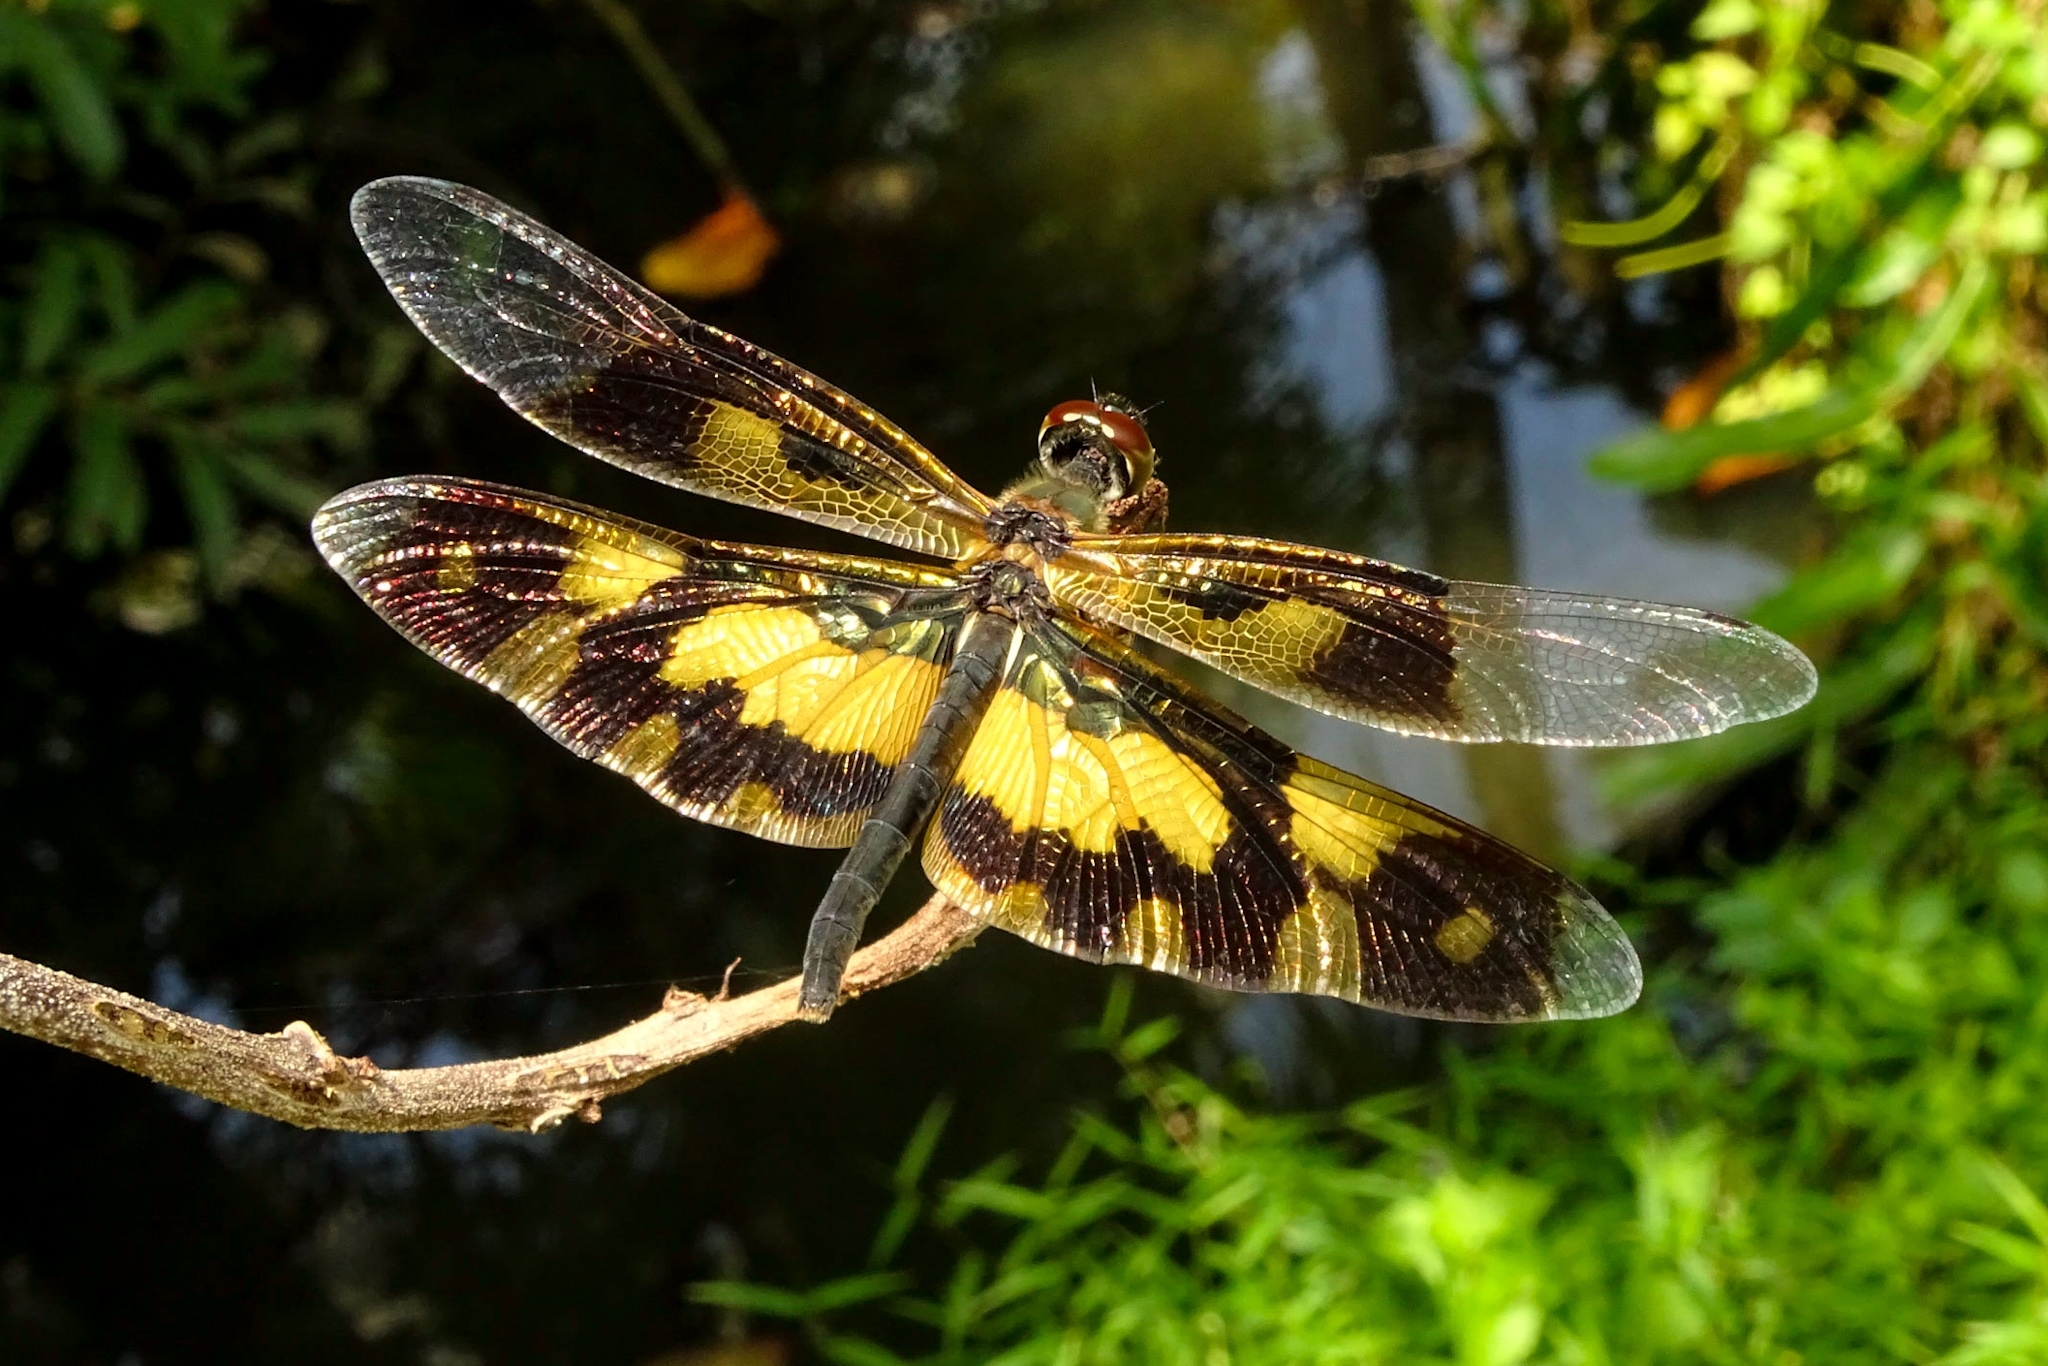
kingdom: Animalia
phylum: Arthropoda
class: Insecta
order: Odonata
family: Libellulidae
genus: Rhyothemis
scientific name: Rhyothemis variegata
